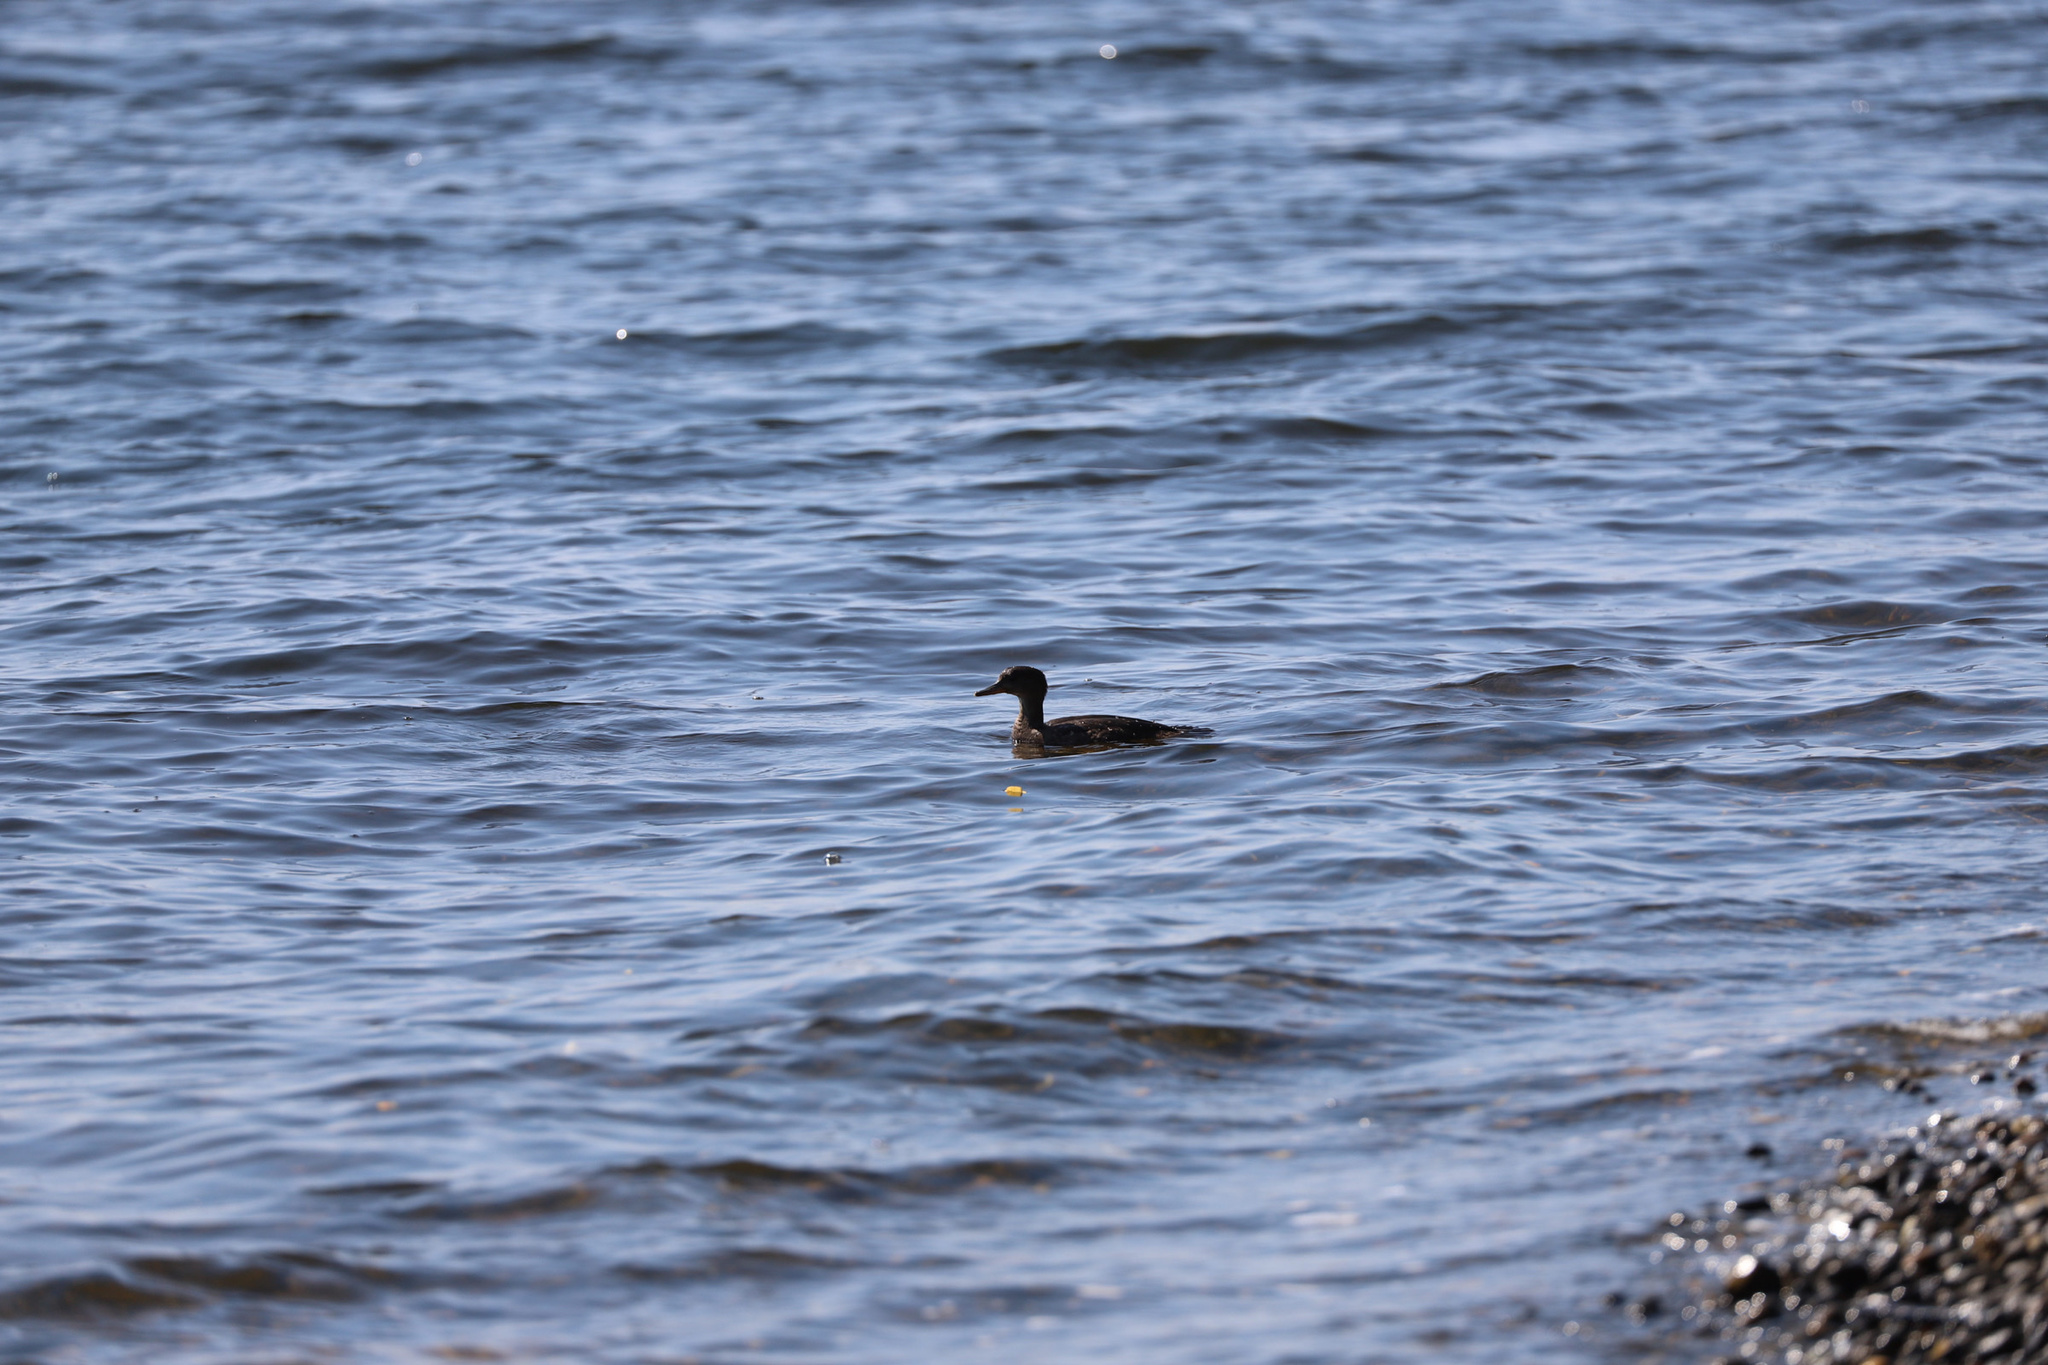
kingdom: Animalia
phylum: Chordata
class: Aves
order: Anseriformes
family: Anatidae
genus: Lophodytes
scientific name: Lophodytes cucullatus
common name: Hooded merganser
